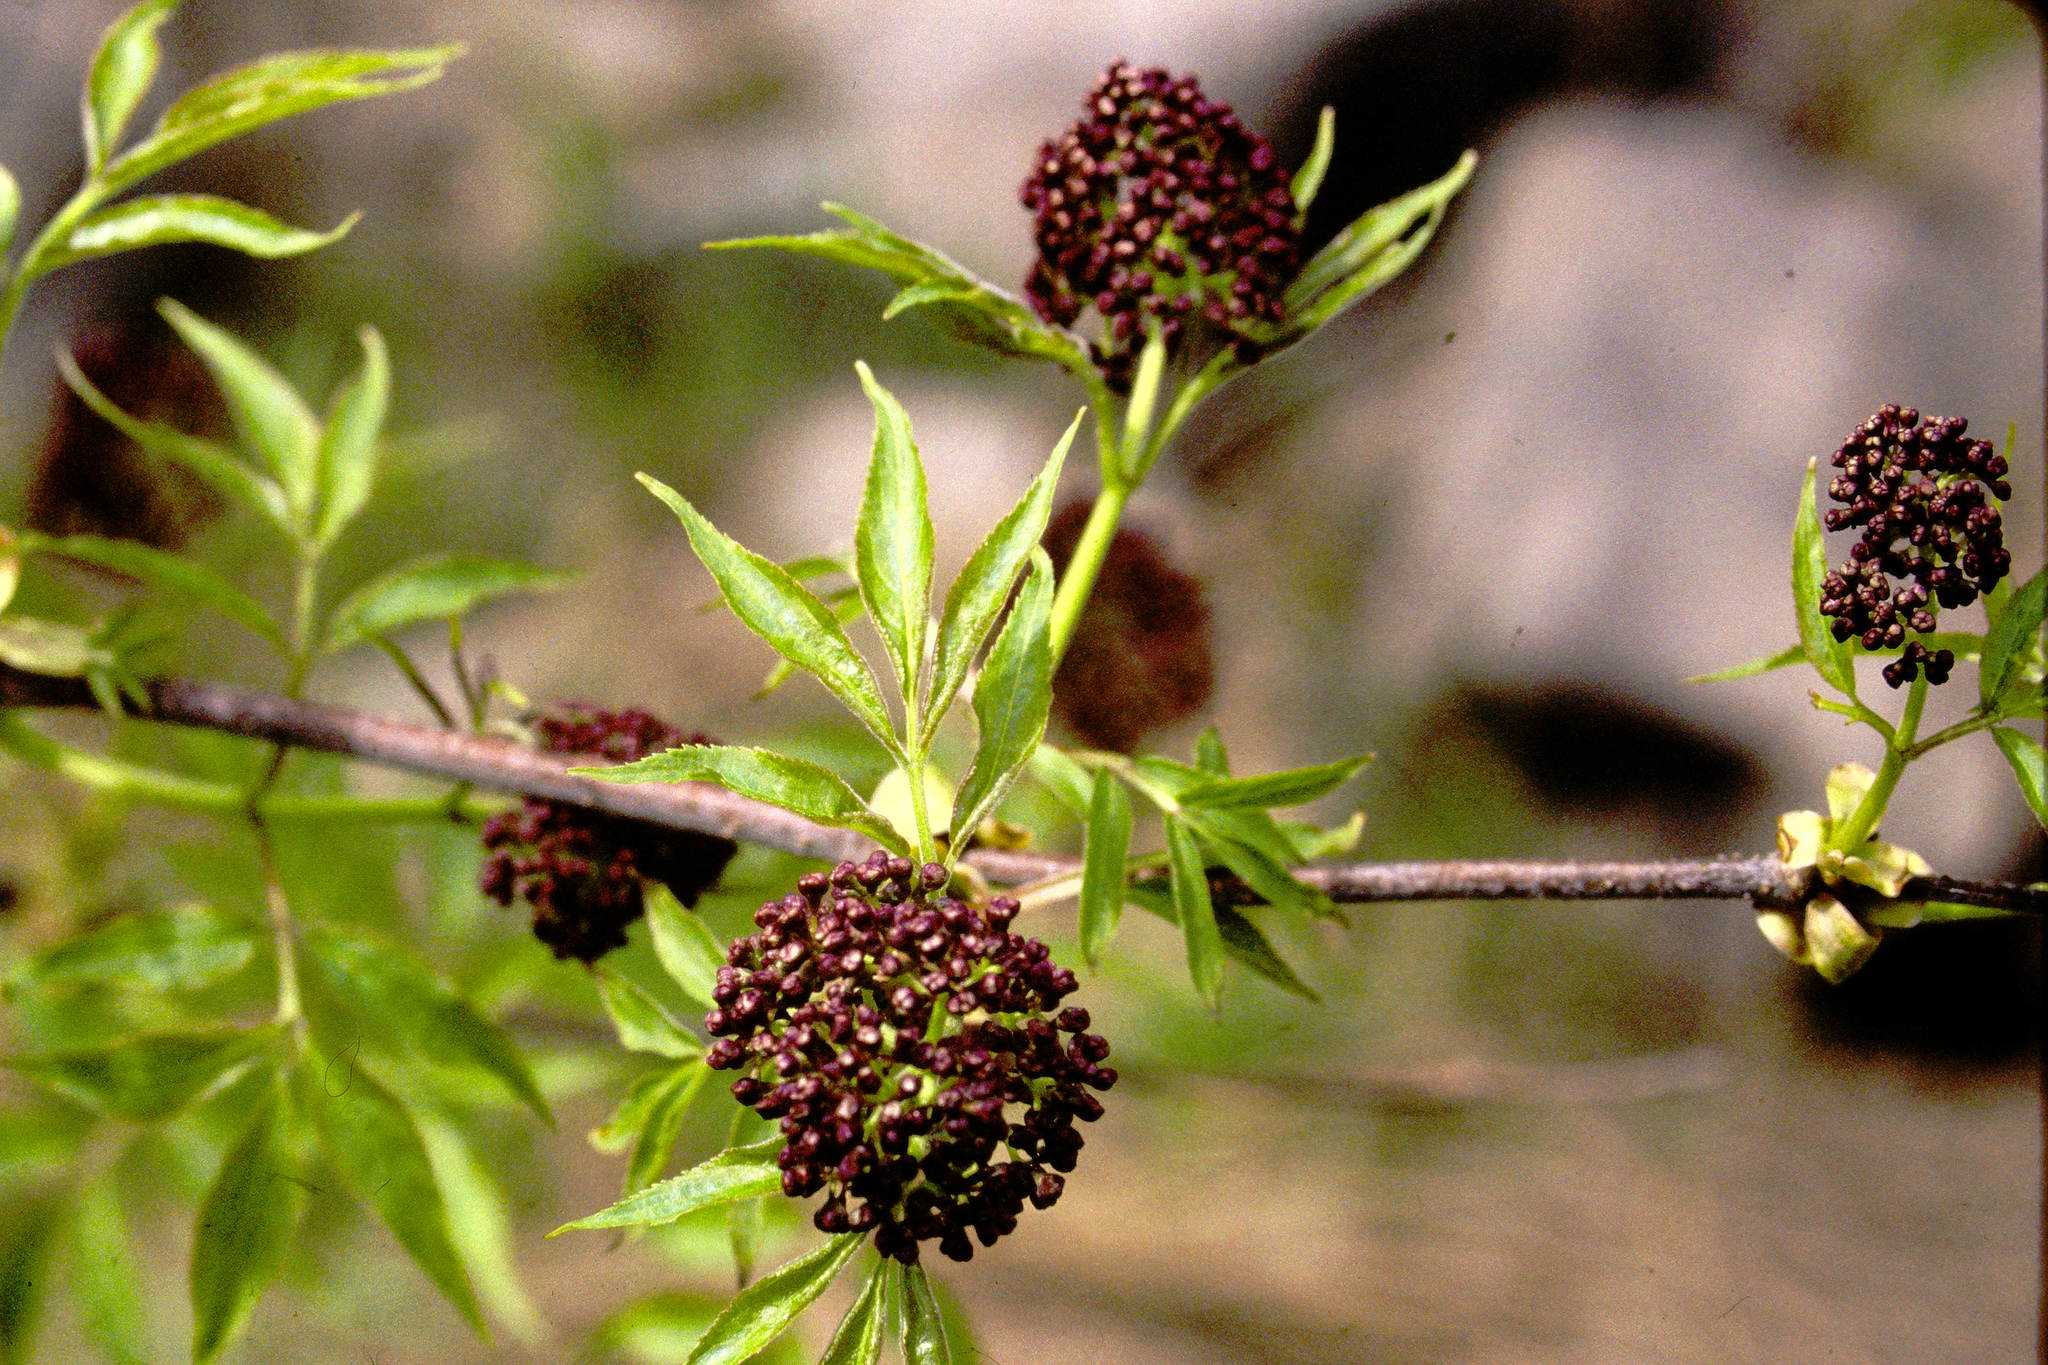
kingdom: Plantae
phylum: Tracheophyta
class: Magnoliopsida
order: Dipsacales
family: Viburnaceae
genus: Sambucus
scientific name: Sambucus racemosa
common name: Red-berried elder
